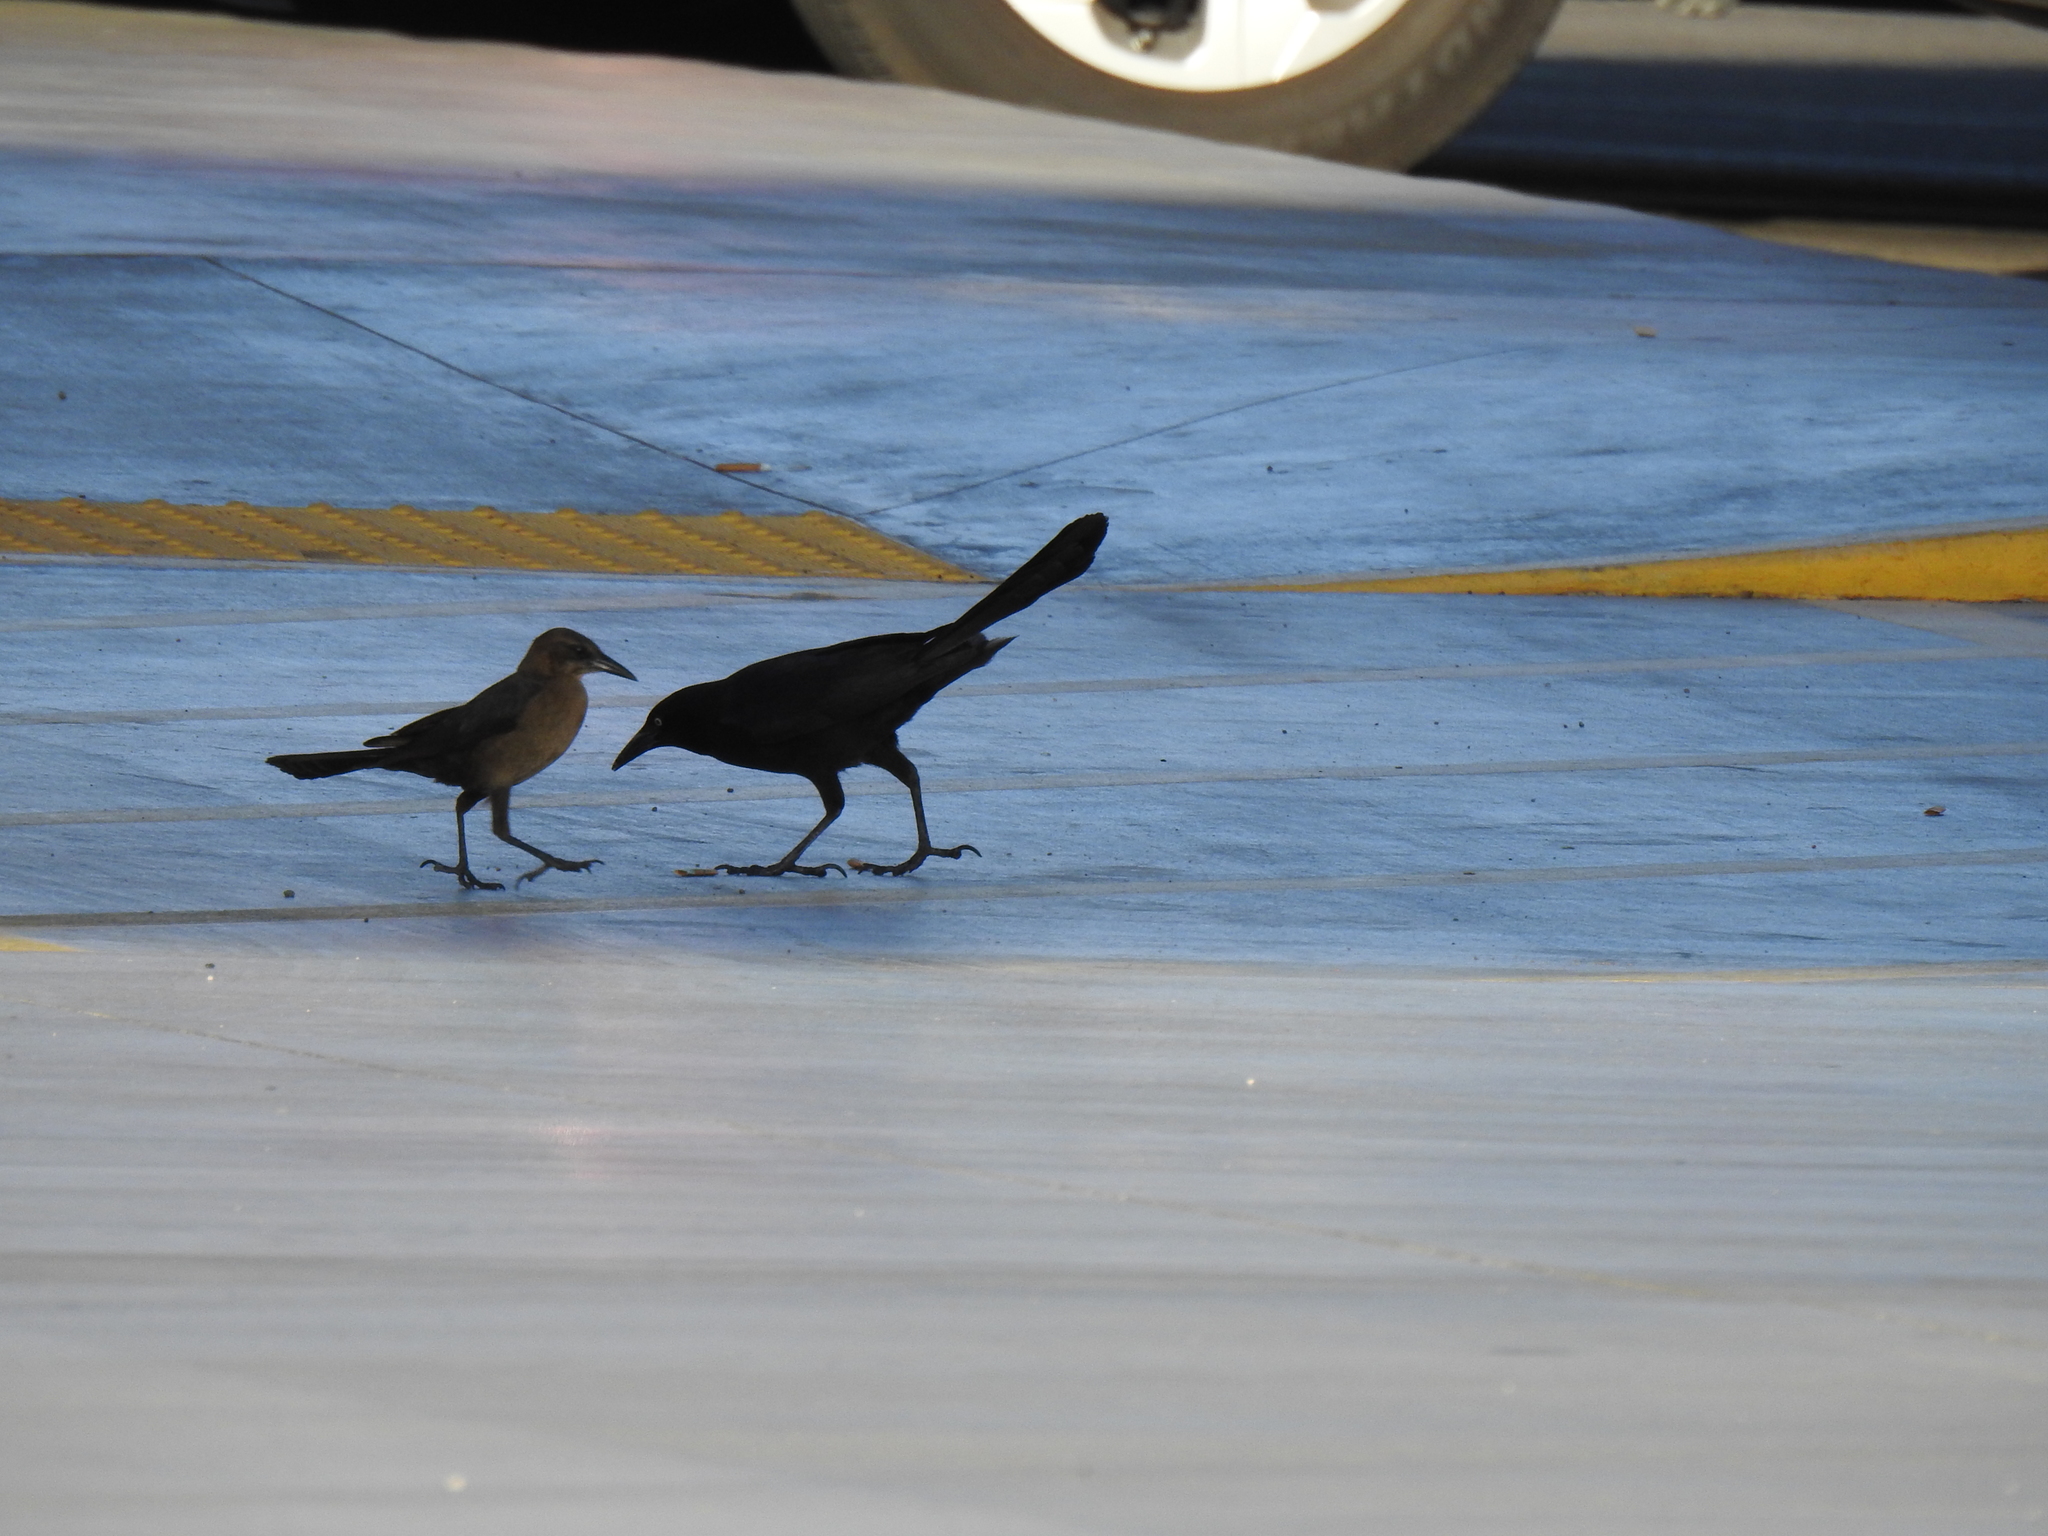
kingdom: Animalia
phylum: Chordata
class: Aves
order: Passeriformes
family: Icteridae
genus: Quiscalus
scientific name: Quiscalus mexicanus
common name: Great-tailed grackle
